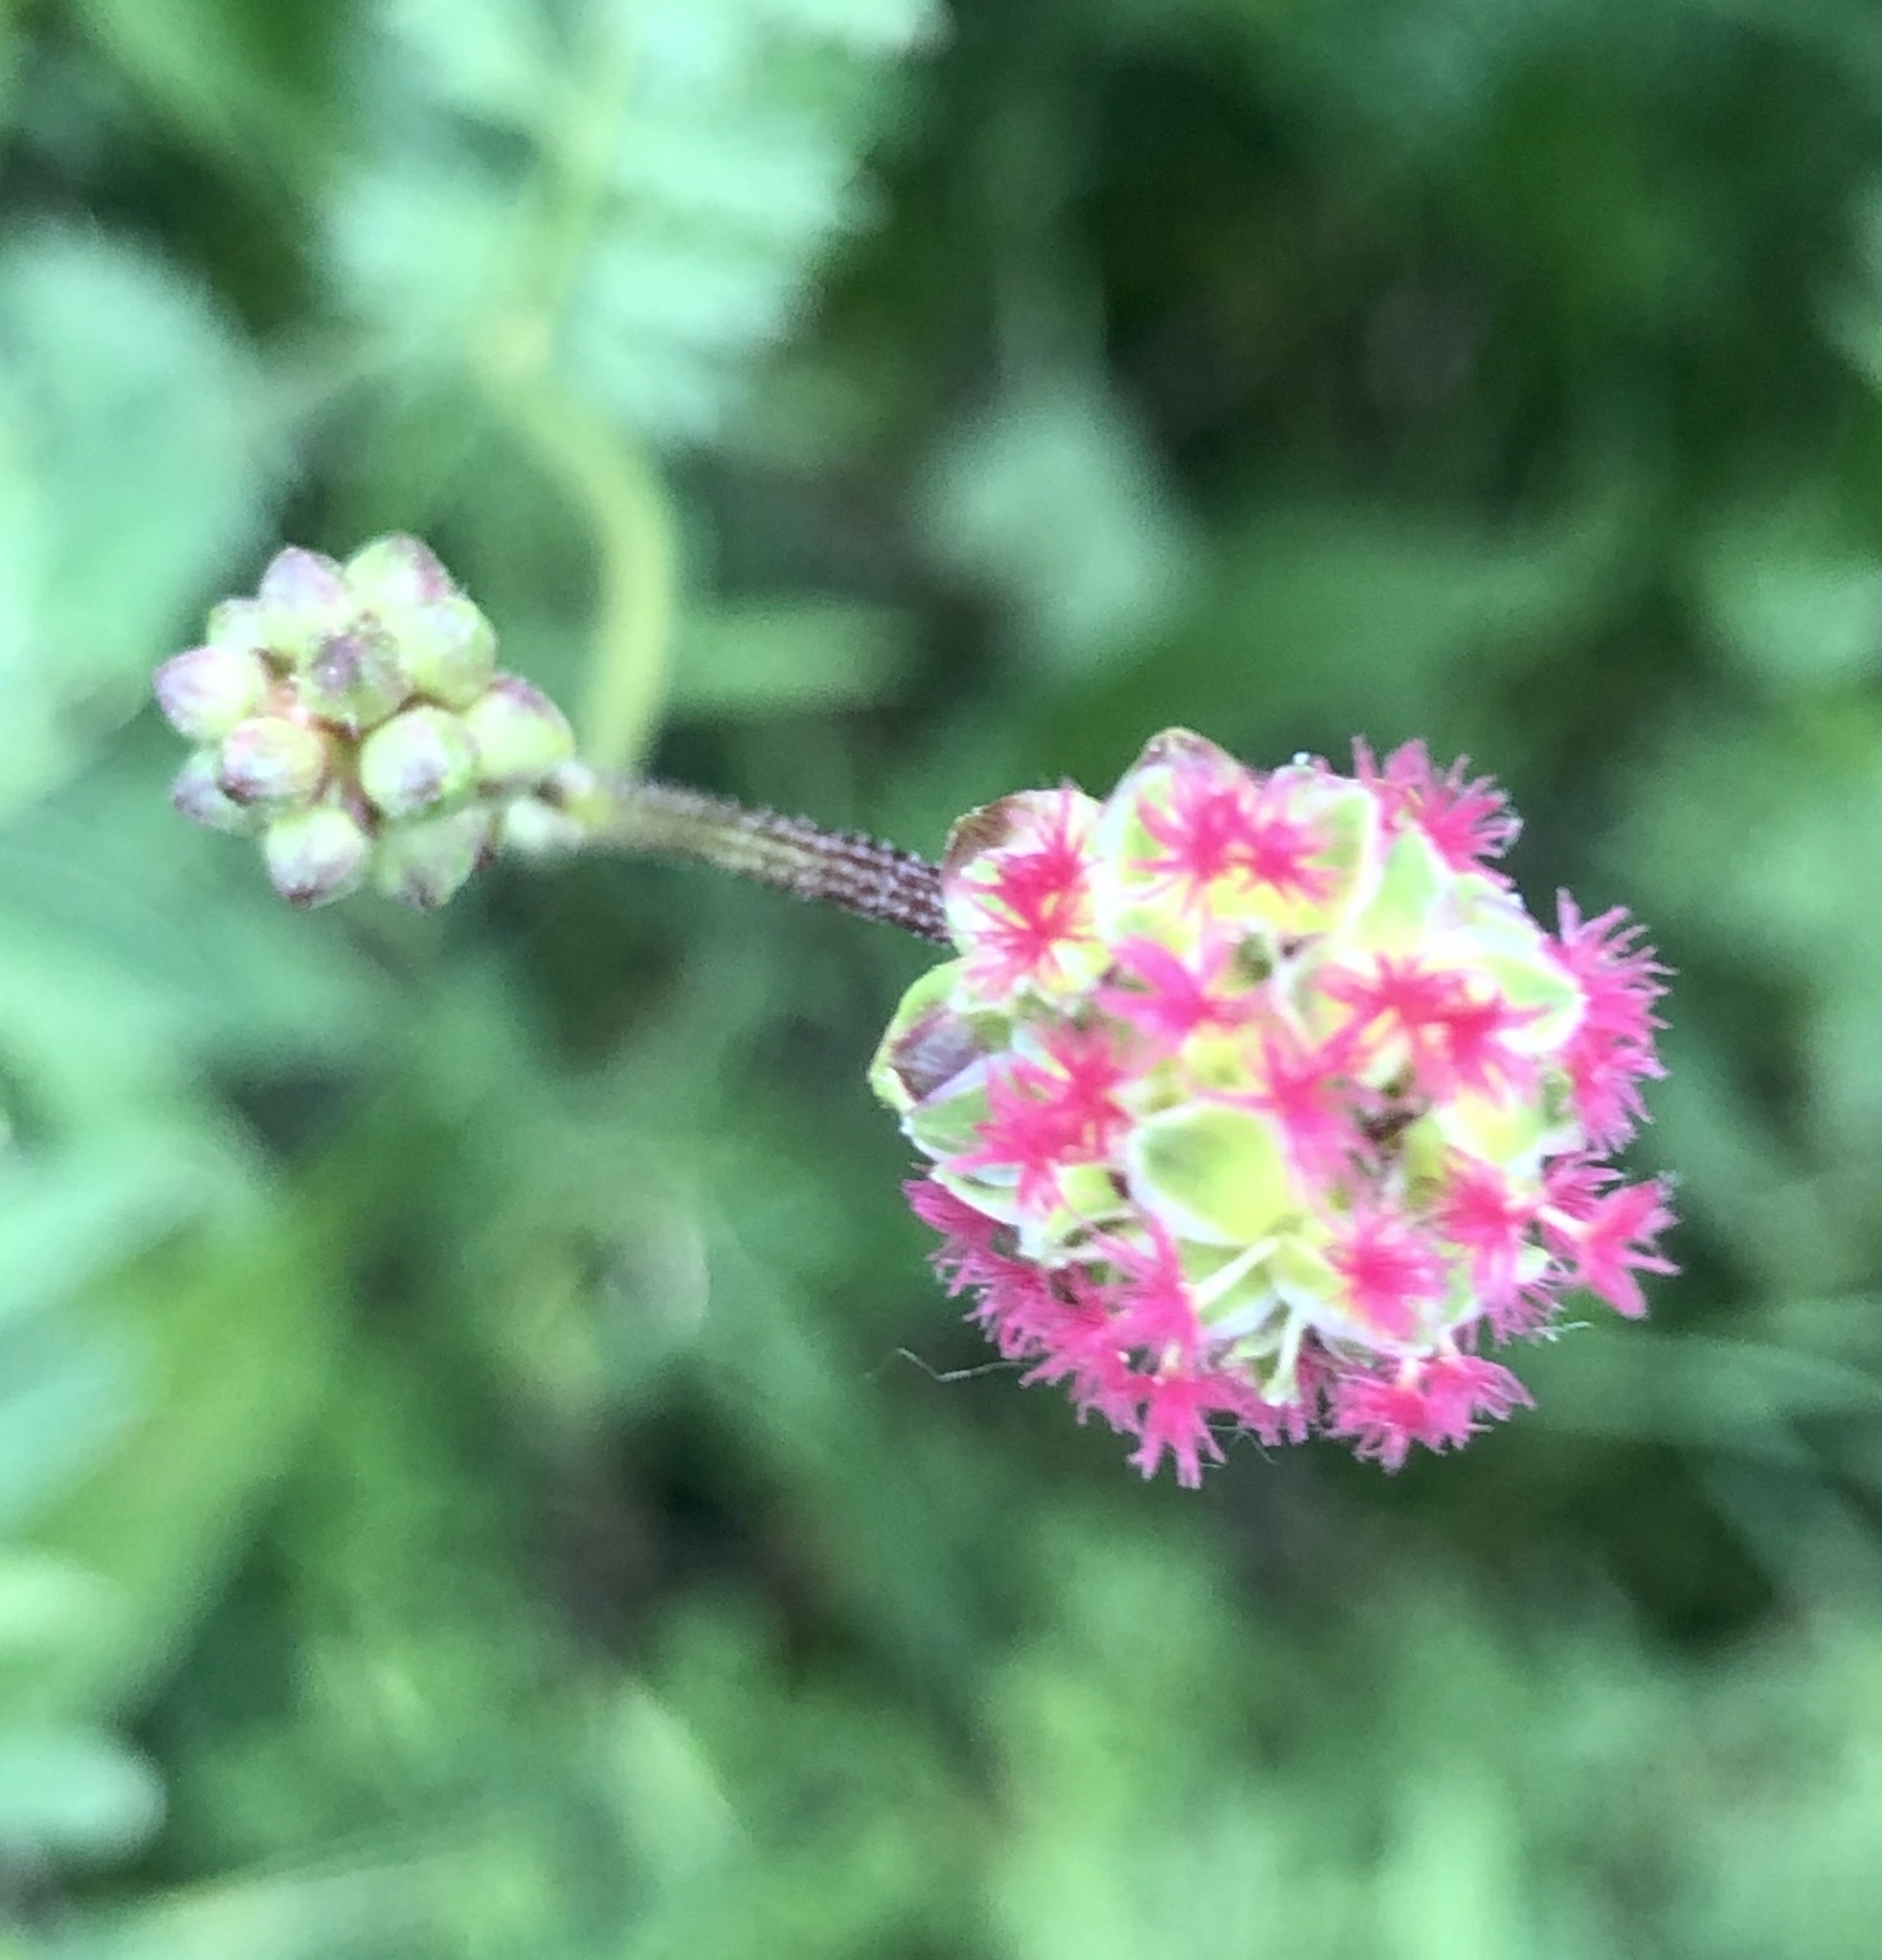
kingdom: Plantae
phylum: Tracheophyta
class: Magnoliopsida
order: Rosales
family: Rosaceae
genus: Poterium
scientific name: Poterium sanguisorba
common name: Salad burnet
